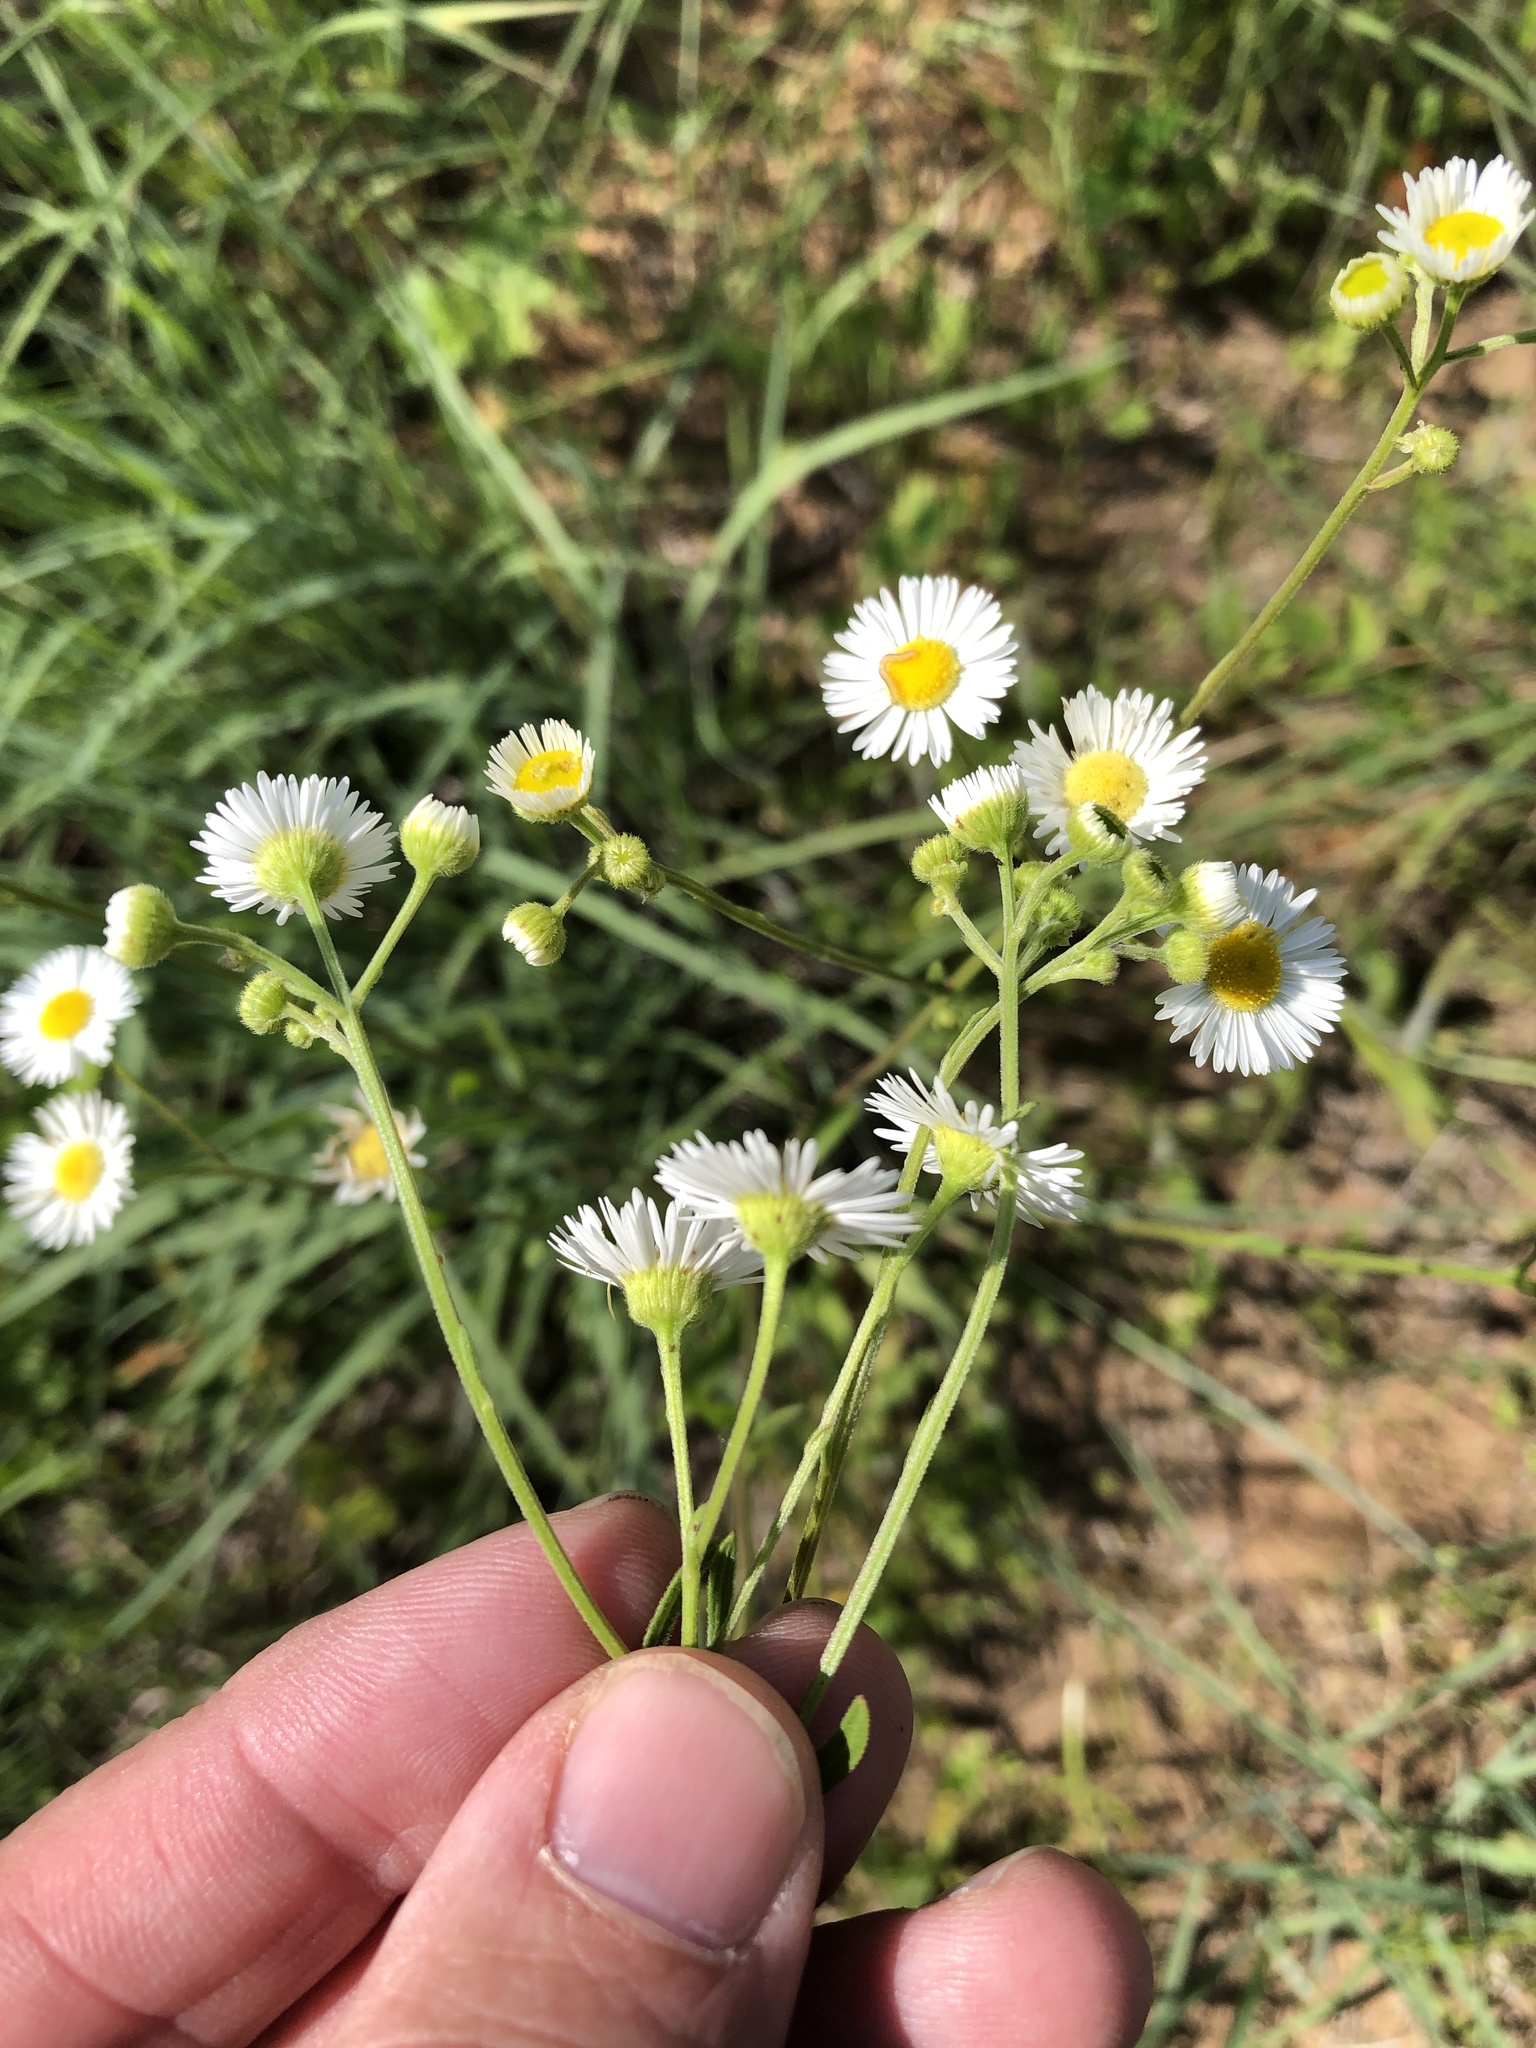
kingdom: Plantae
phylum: Tracheophyta
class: Magnoliopsida
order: Asterales
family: Asteraceae
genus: Erigeron
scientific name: Erigeron strigosus
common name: Common eastern fleabane
